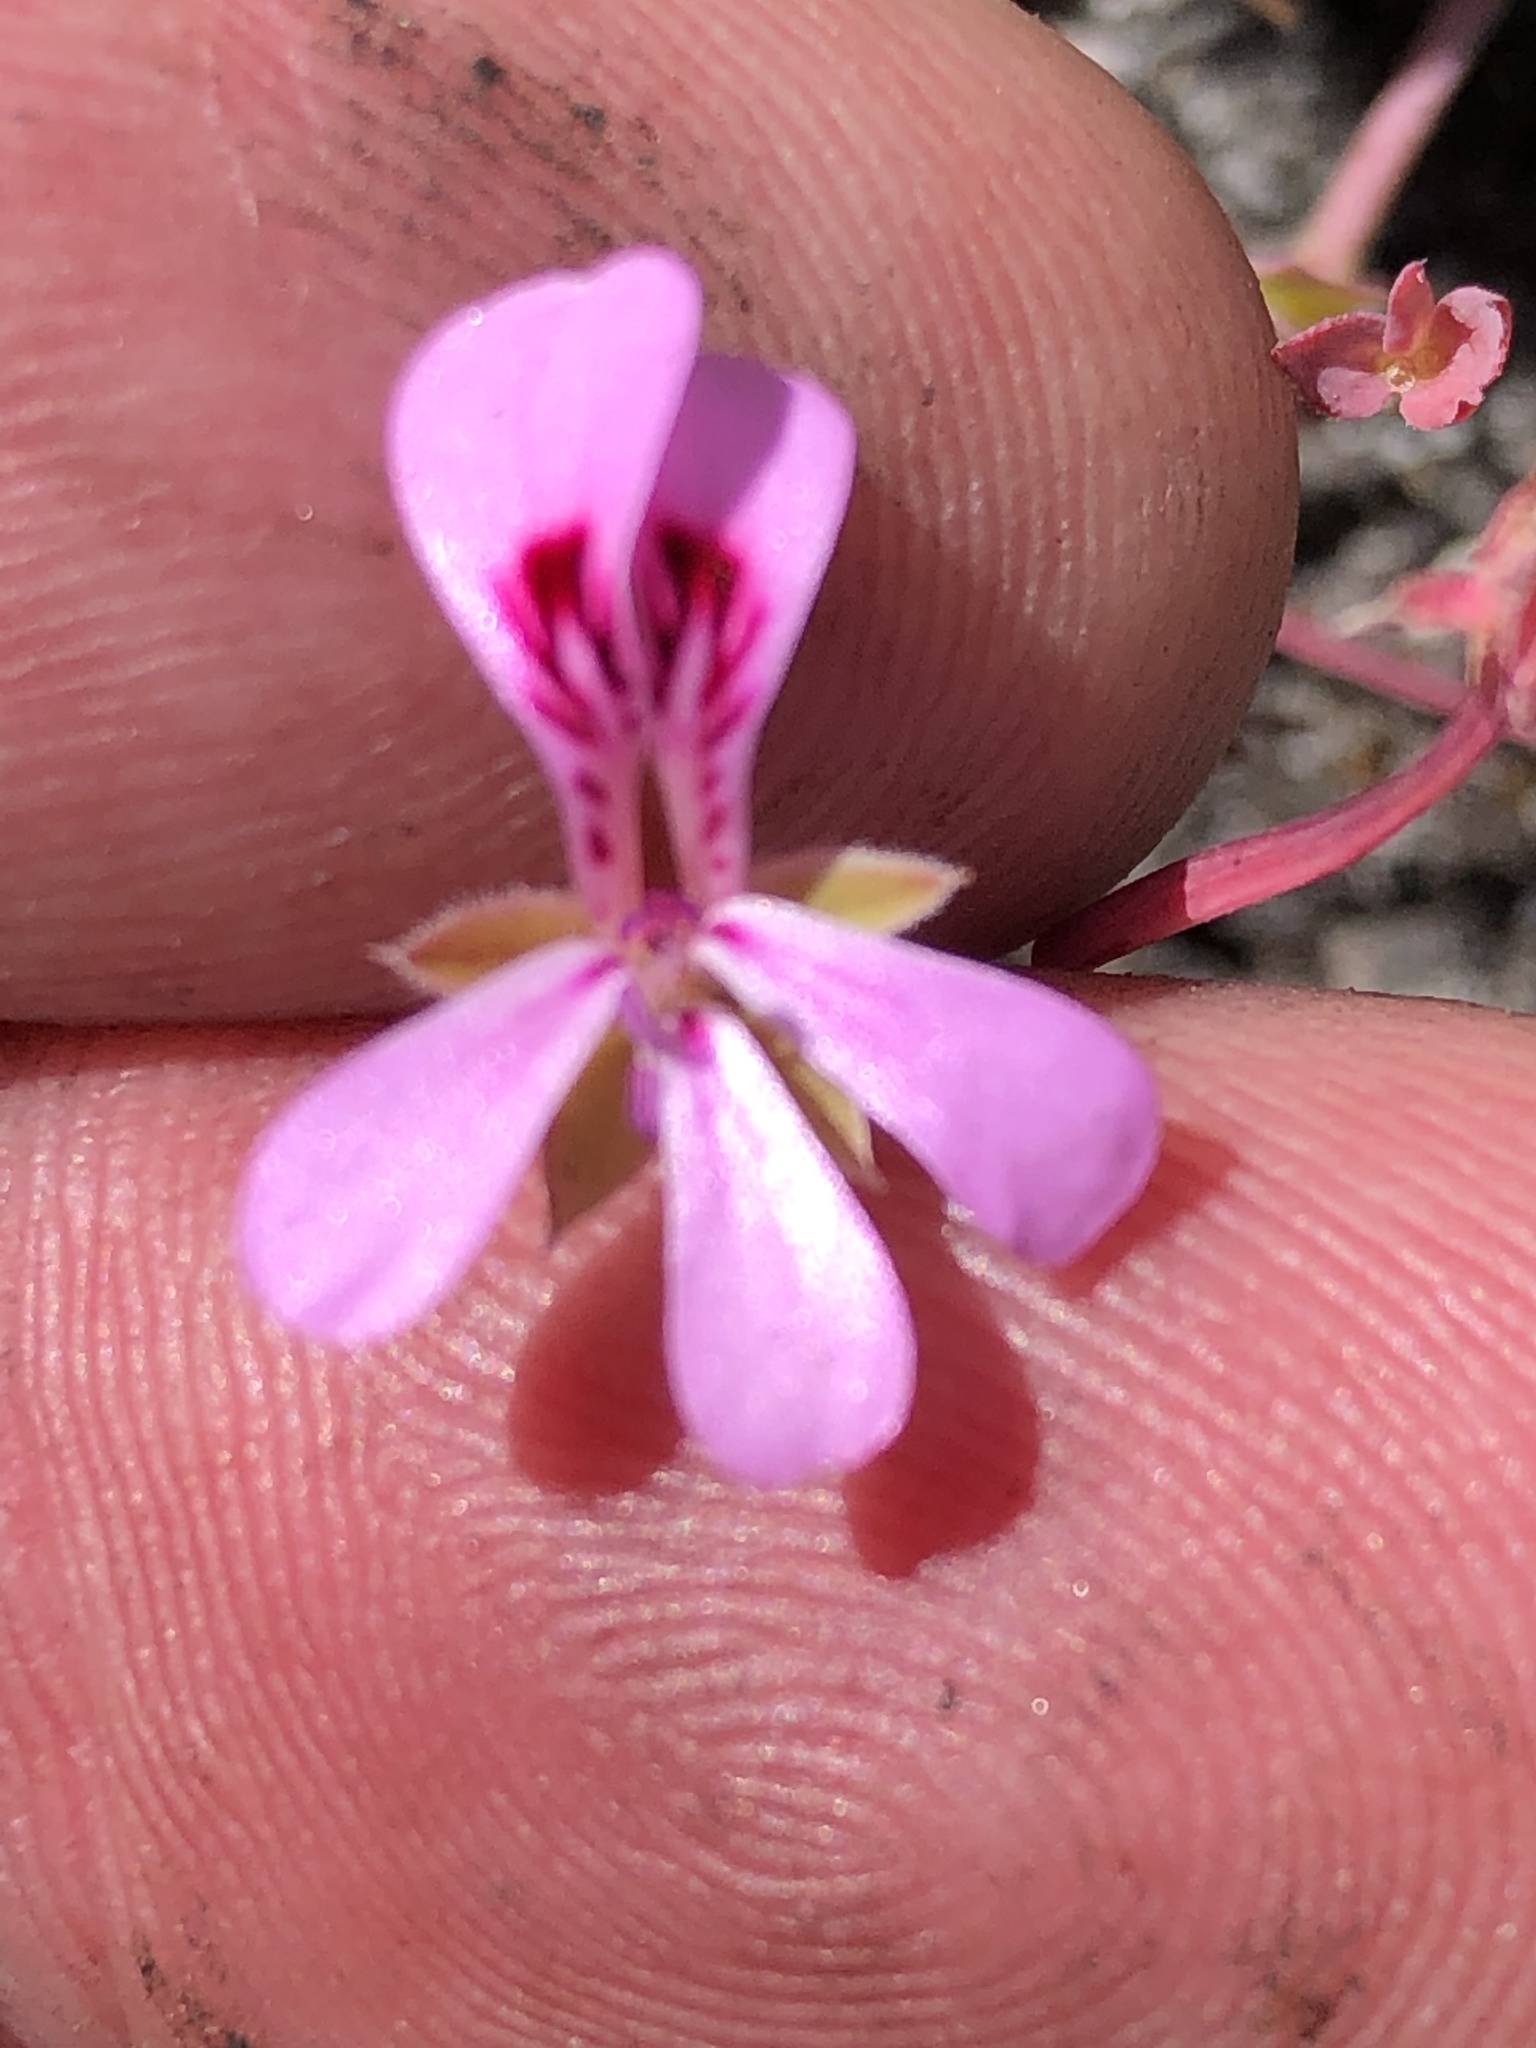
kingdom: Plantae
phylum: Tracheophyta
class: Magnoliopsida
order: Geraniales
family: Geraniaceae
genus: Pelargonium
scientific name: Pelargonium patulum
